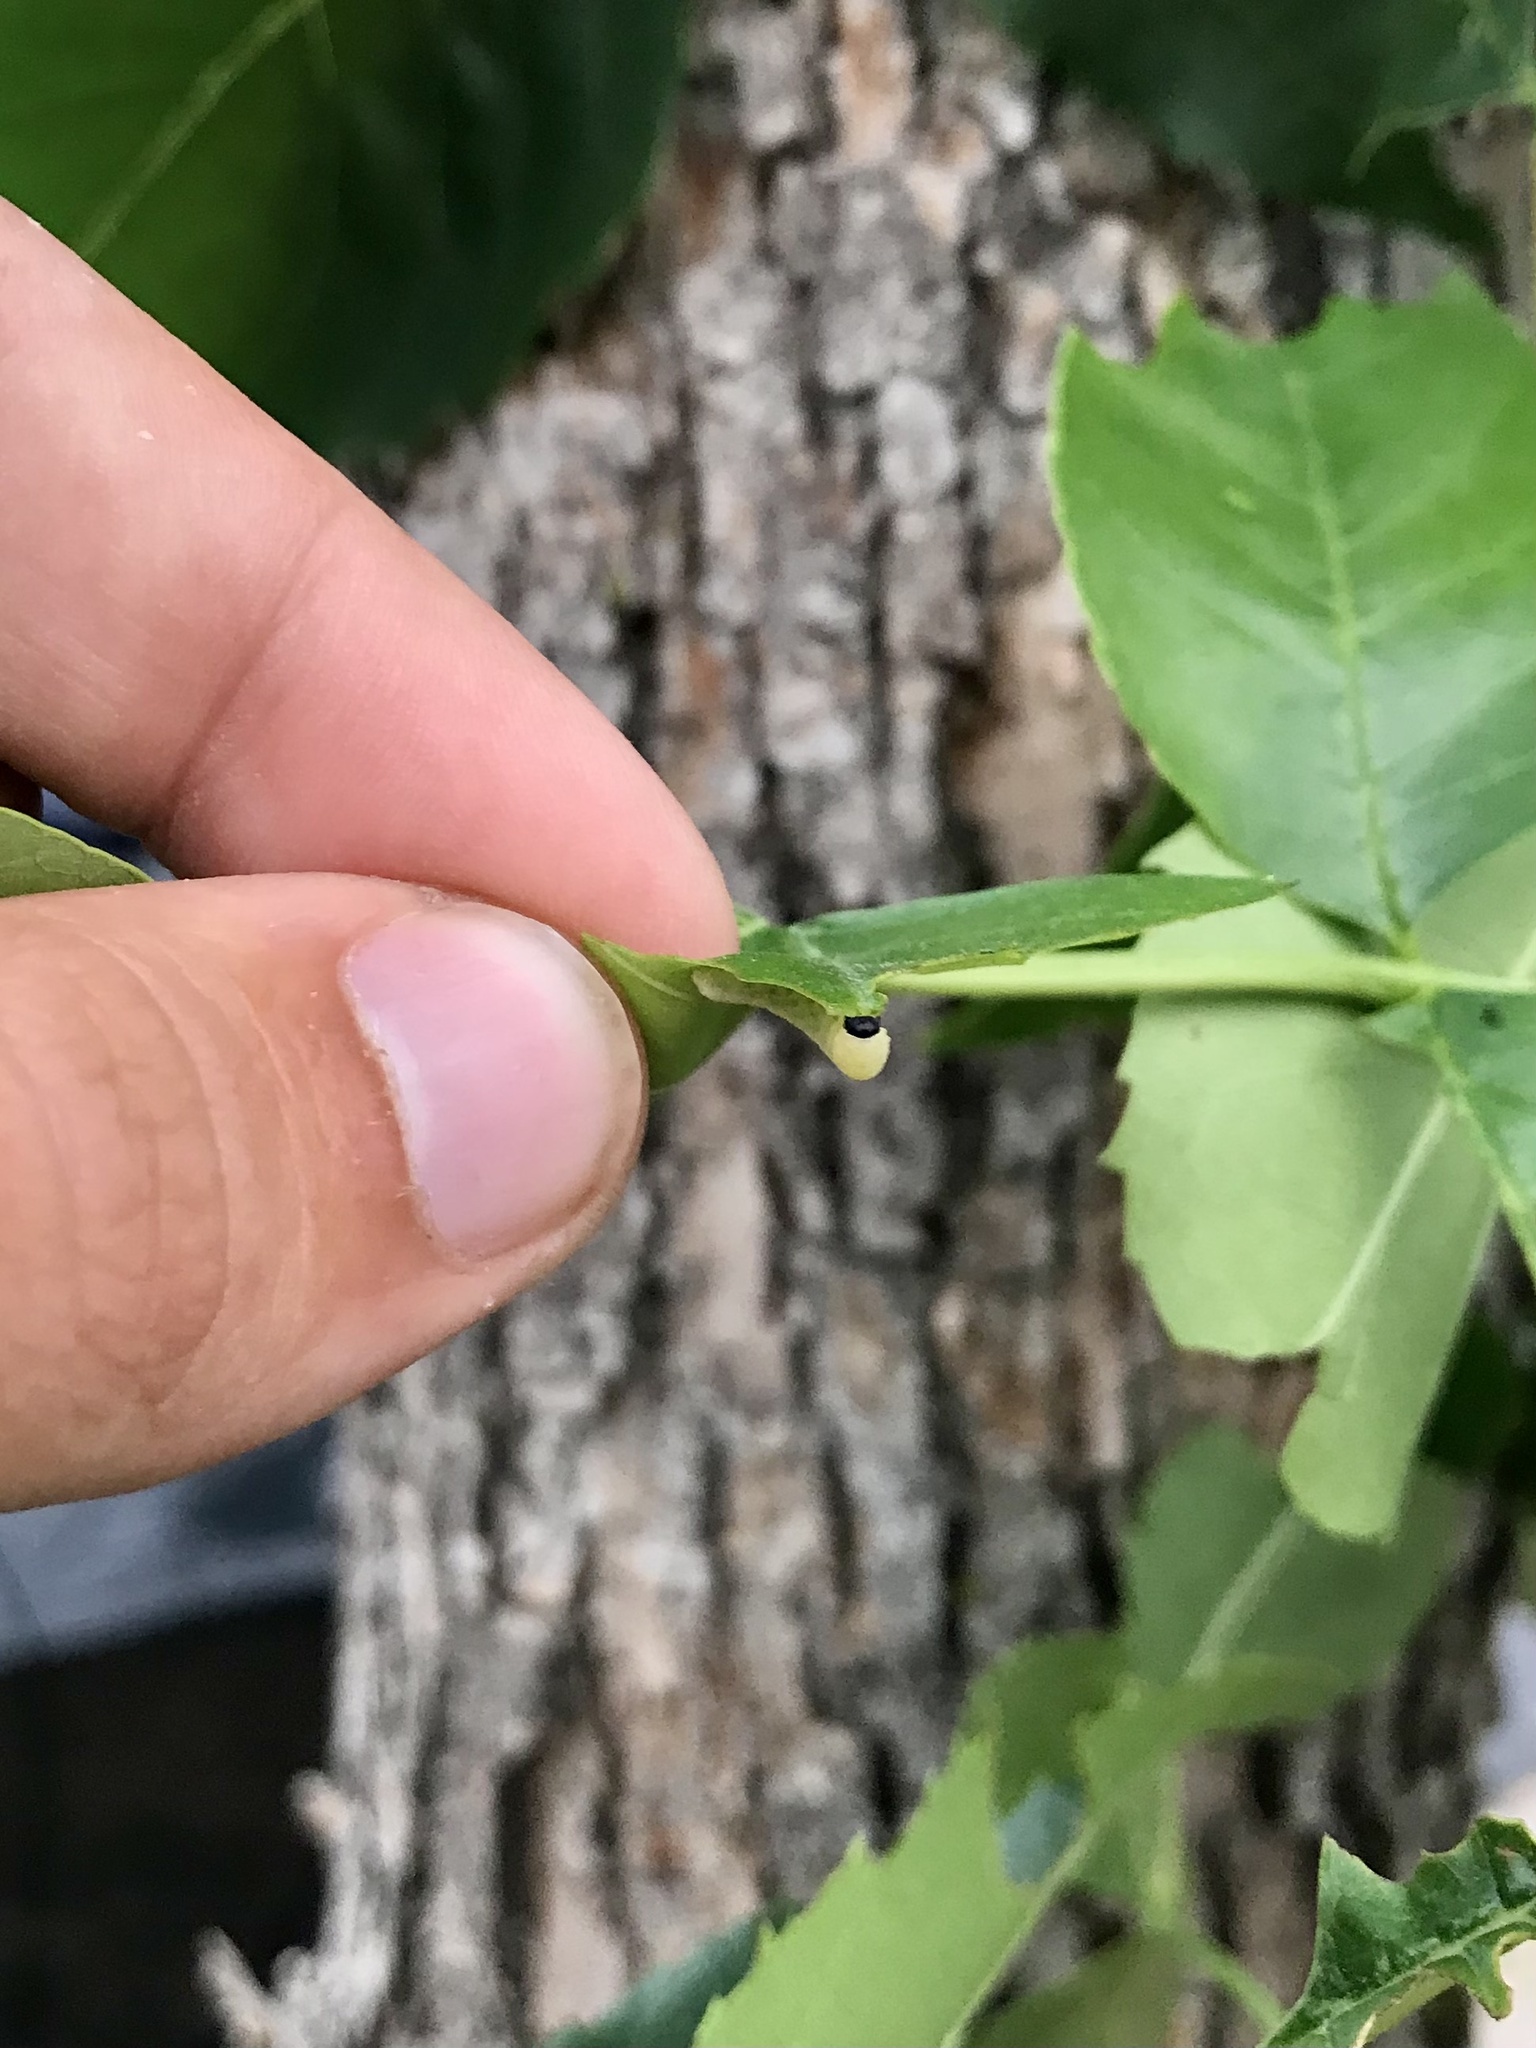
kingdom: Animalia
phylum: Arthropoda
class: Insecta
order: Hymenoptera
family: Tenthredinidae
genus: Tethida
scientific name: Tethida barda
